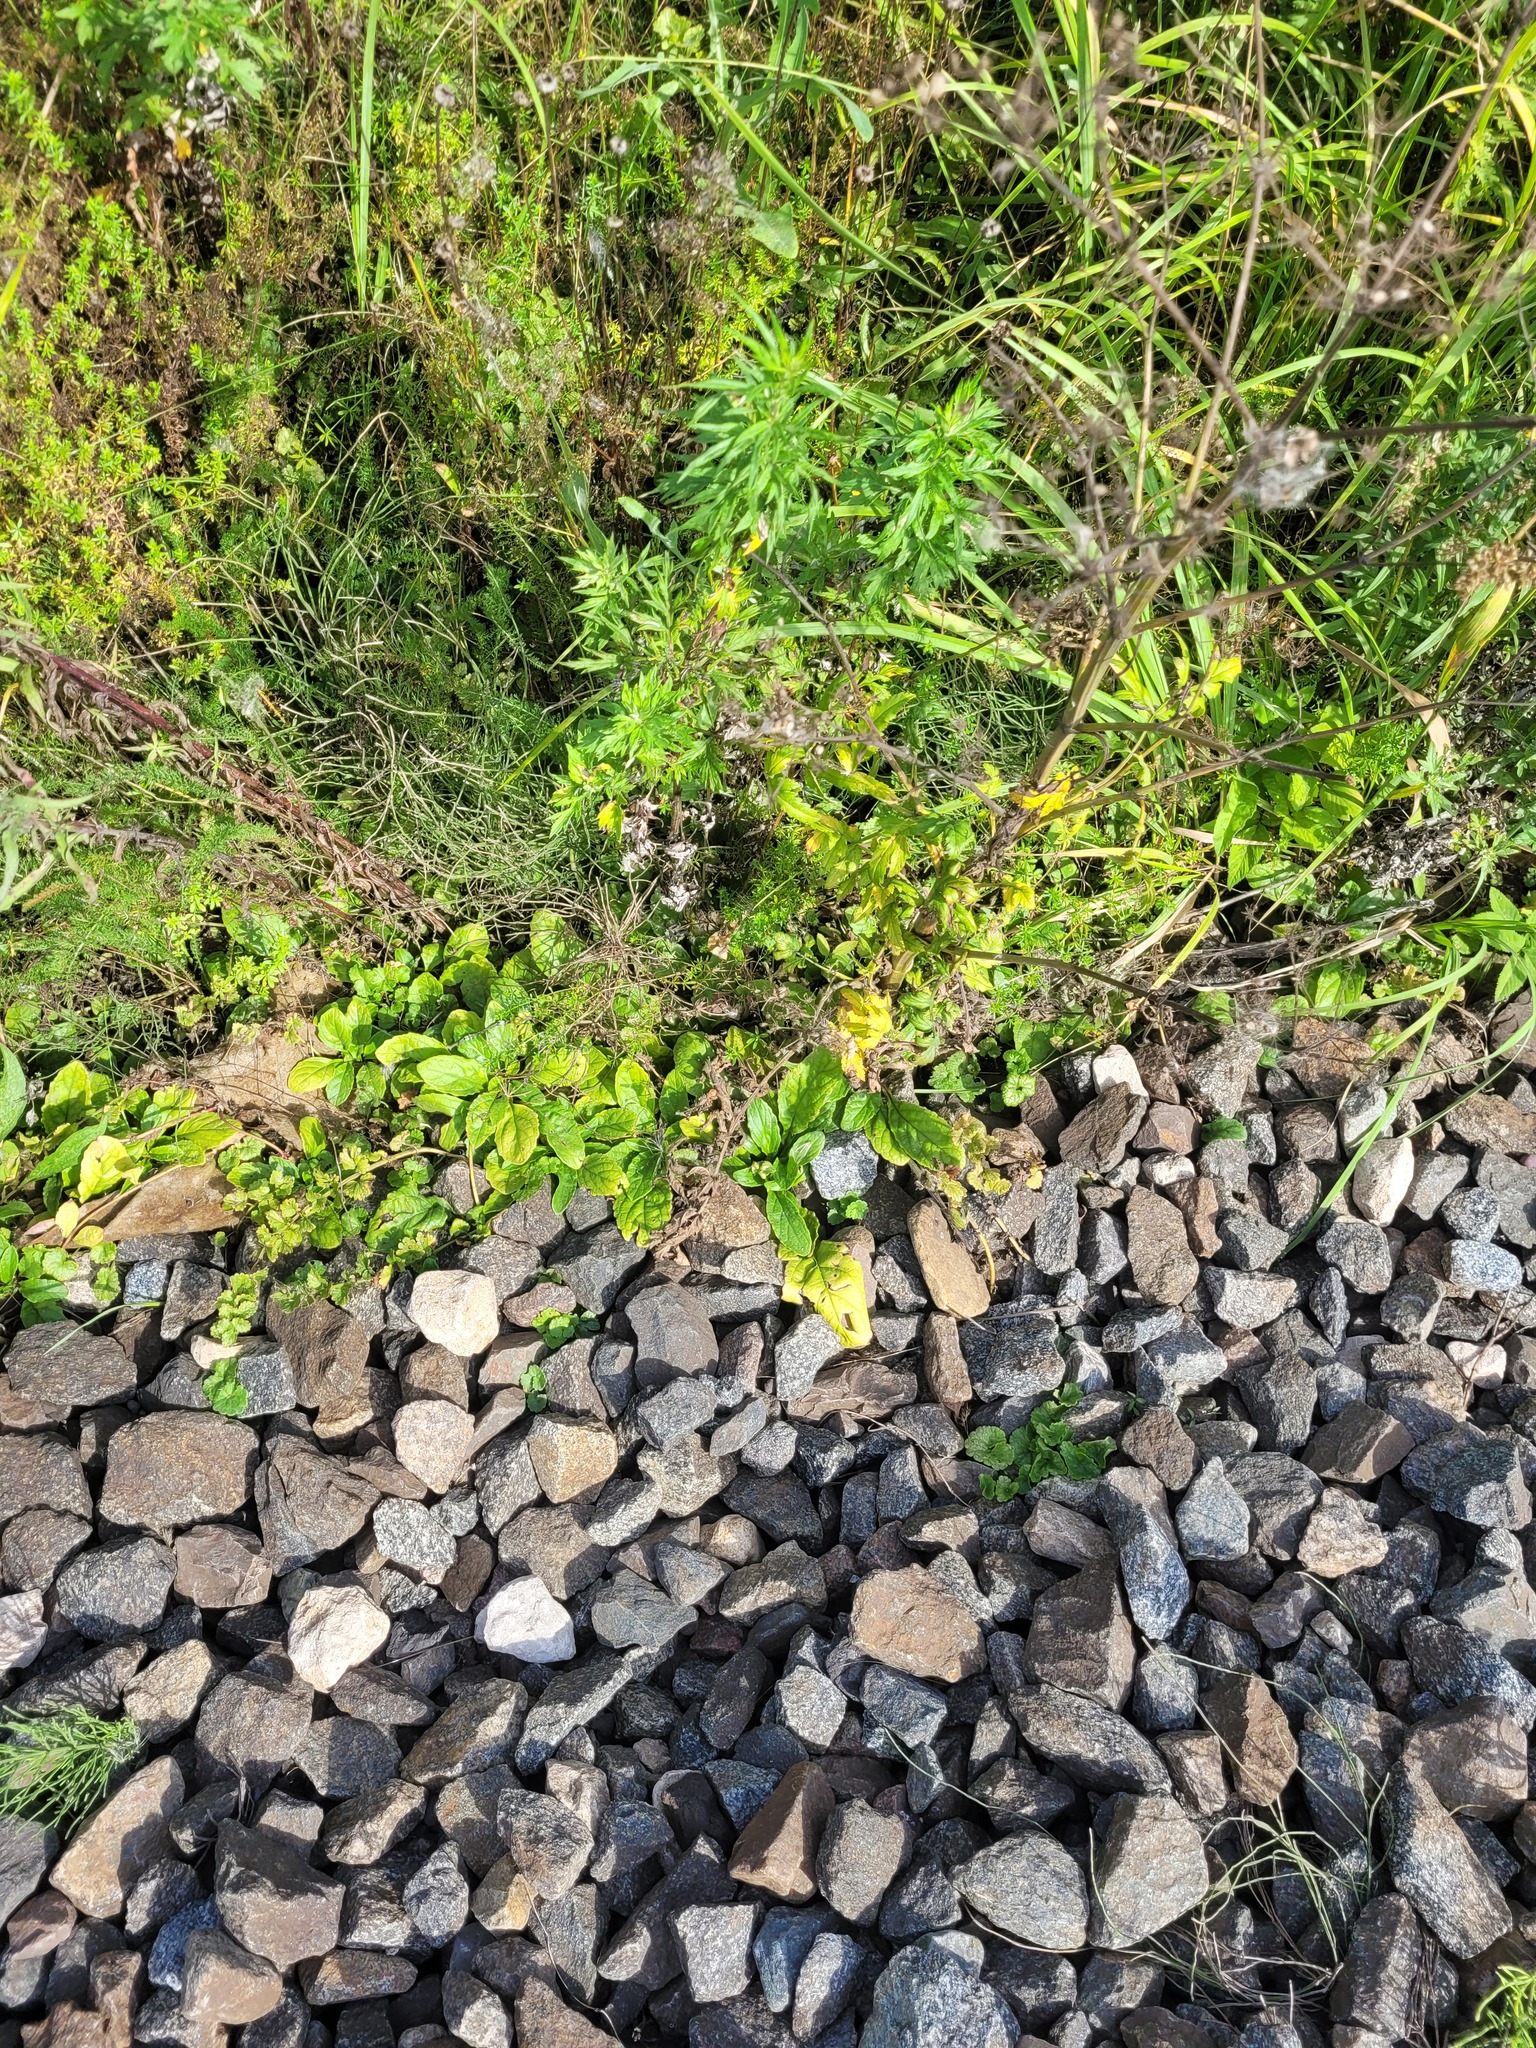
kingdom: Plantae
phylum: Tracheophyta
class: Magnoliopsida
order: Lamiales
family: Lamiaceae
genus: Ajuga
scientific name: Ajuga reptans
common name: Bugle
